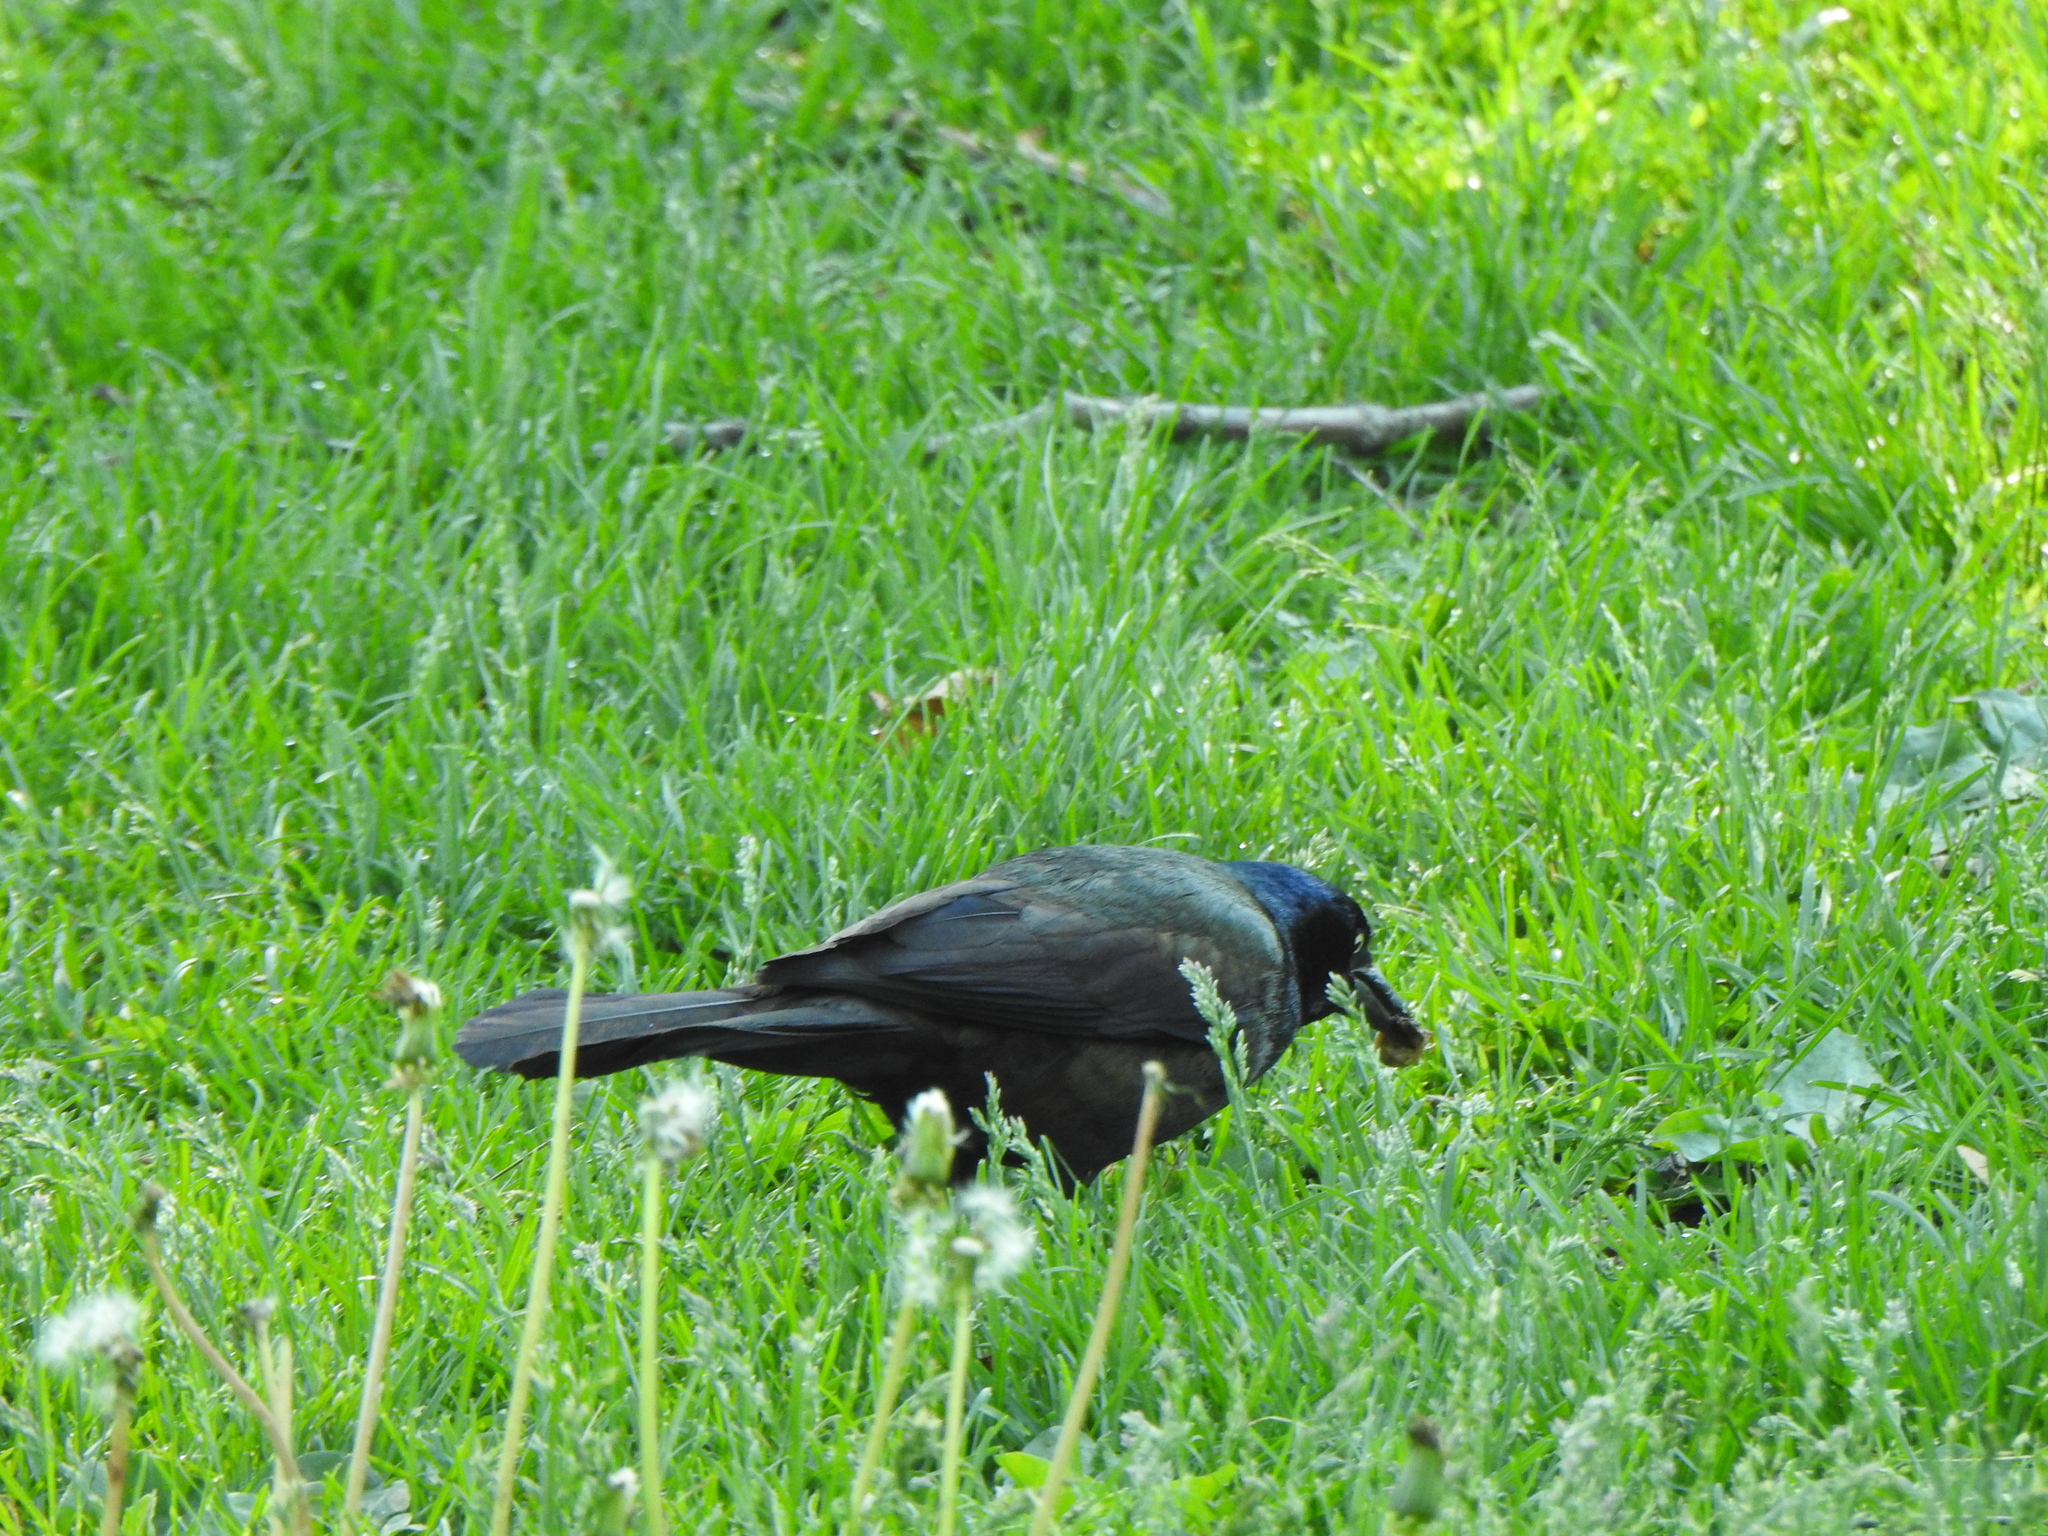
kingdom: Animalia
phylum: Chordata
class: Aves
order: Passeriformes
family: Icteridae
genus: Quiscalus
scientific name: Quiscalus quiscula
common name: Common grackle
